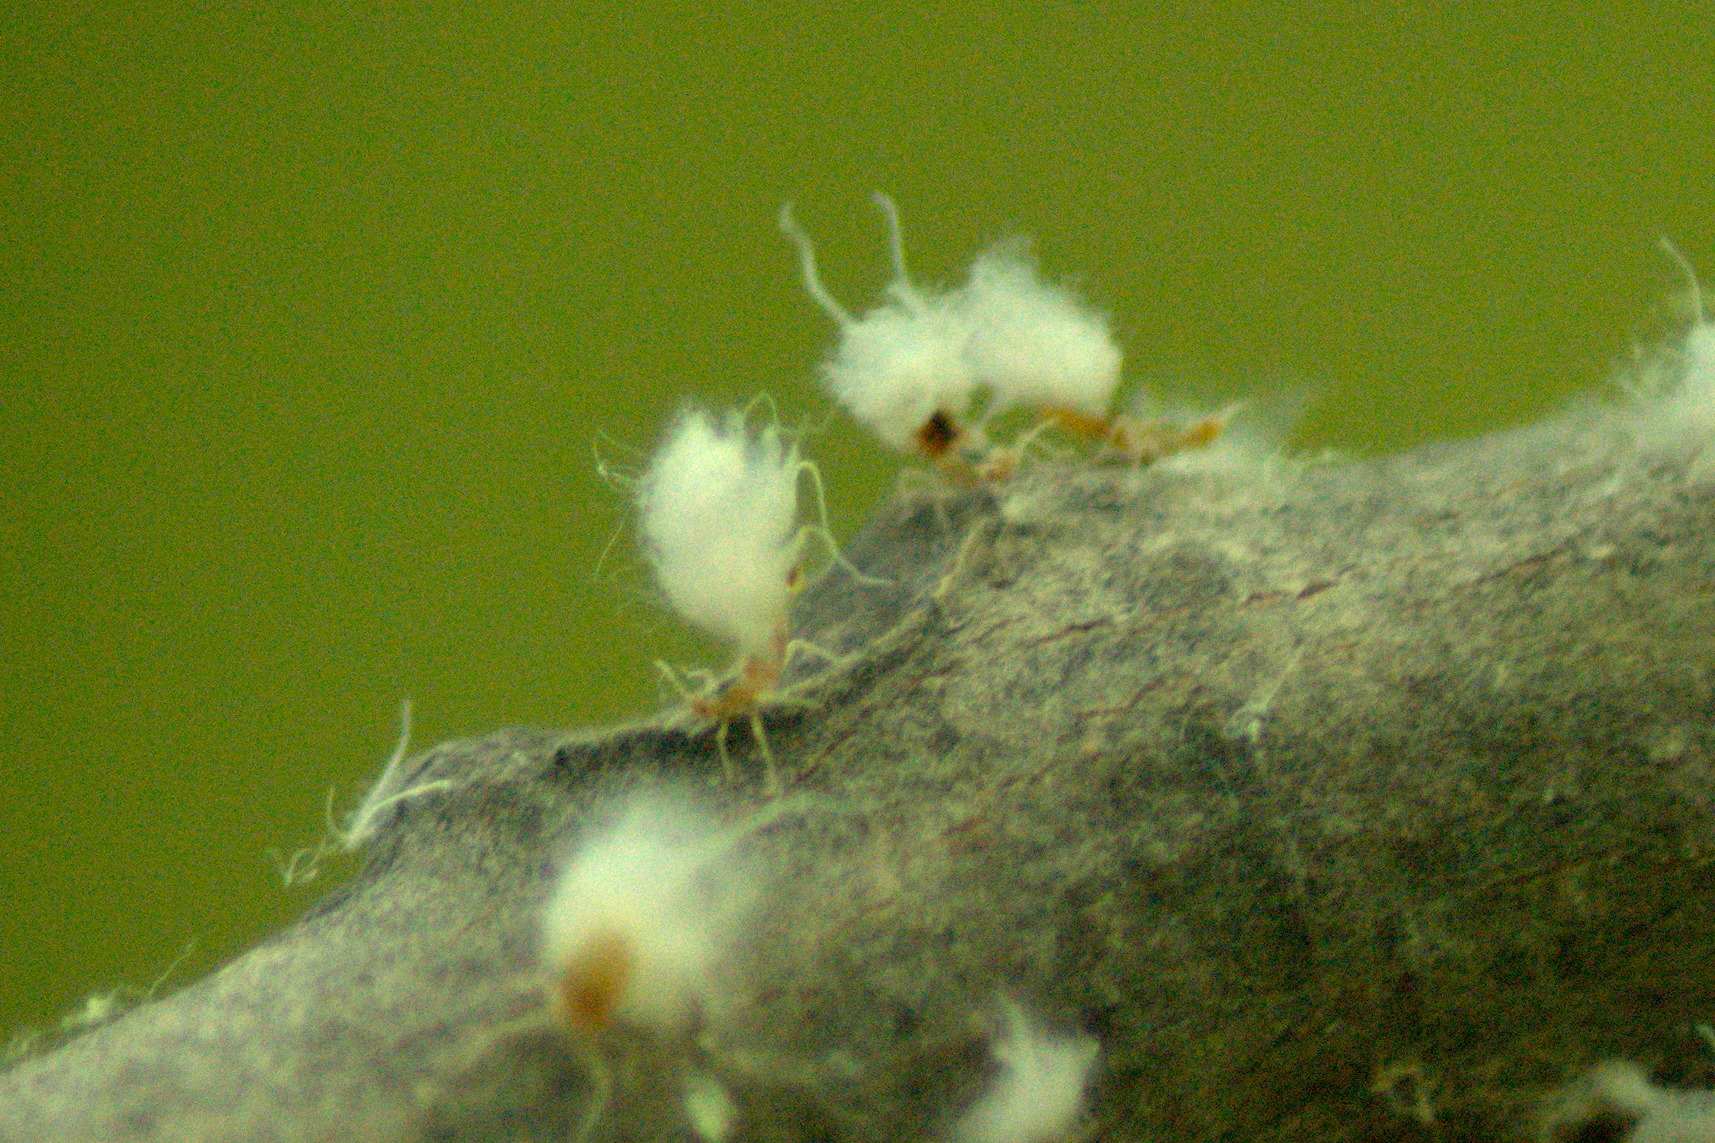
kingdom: Animalia
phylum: Arthropoda
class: Insecta
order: Hemiptera
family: Aphididae
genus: Grylloprociphilus
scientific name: Grylloprociphilus imbricator
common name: Beech blight aphid
